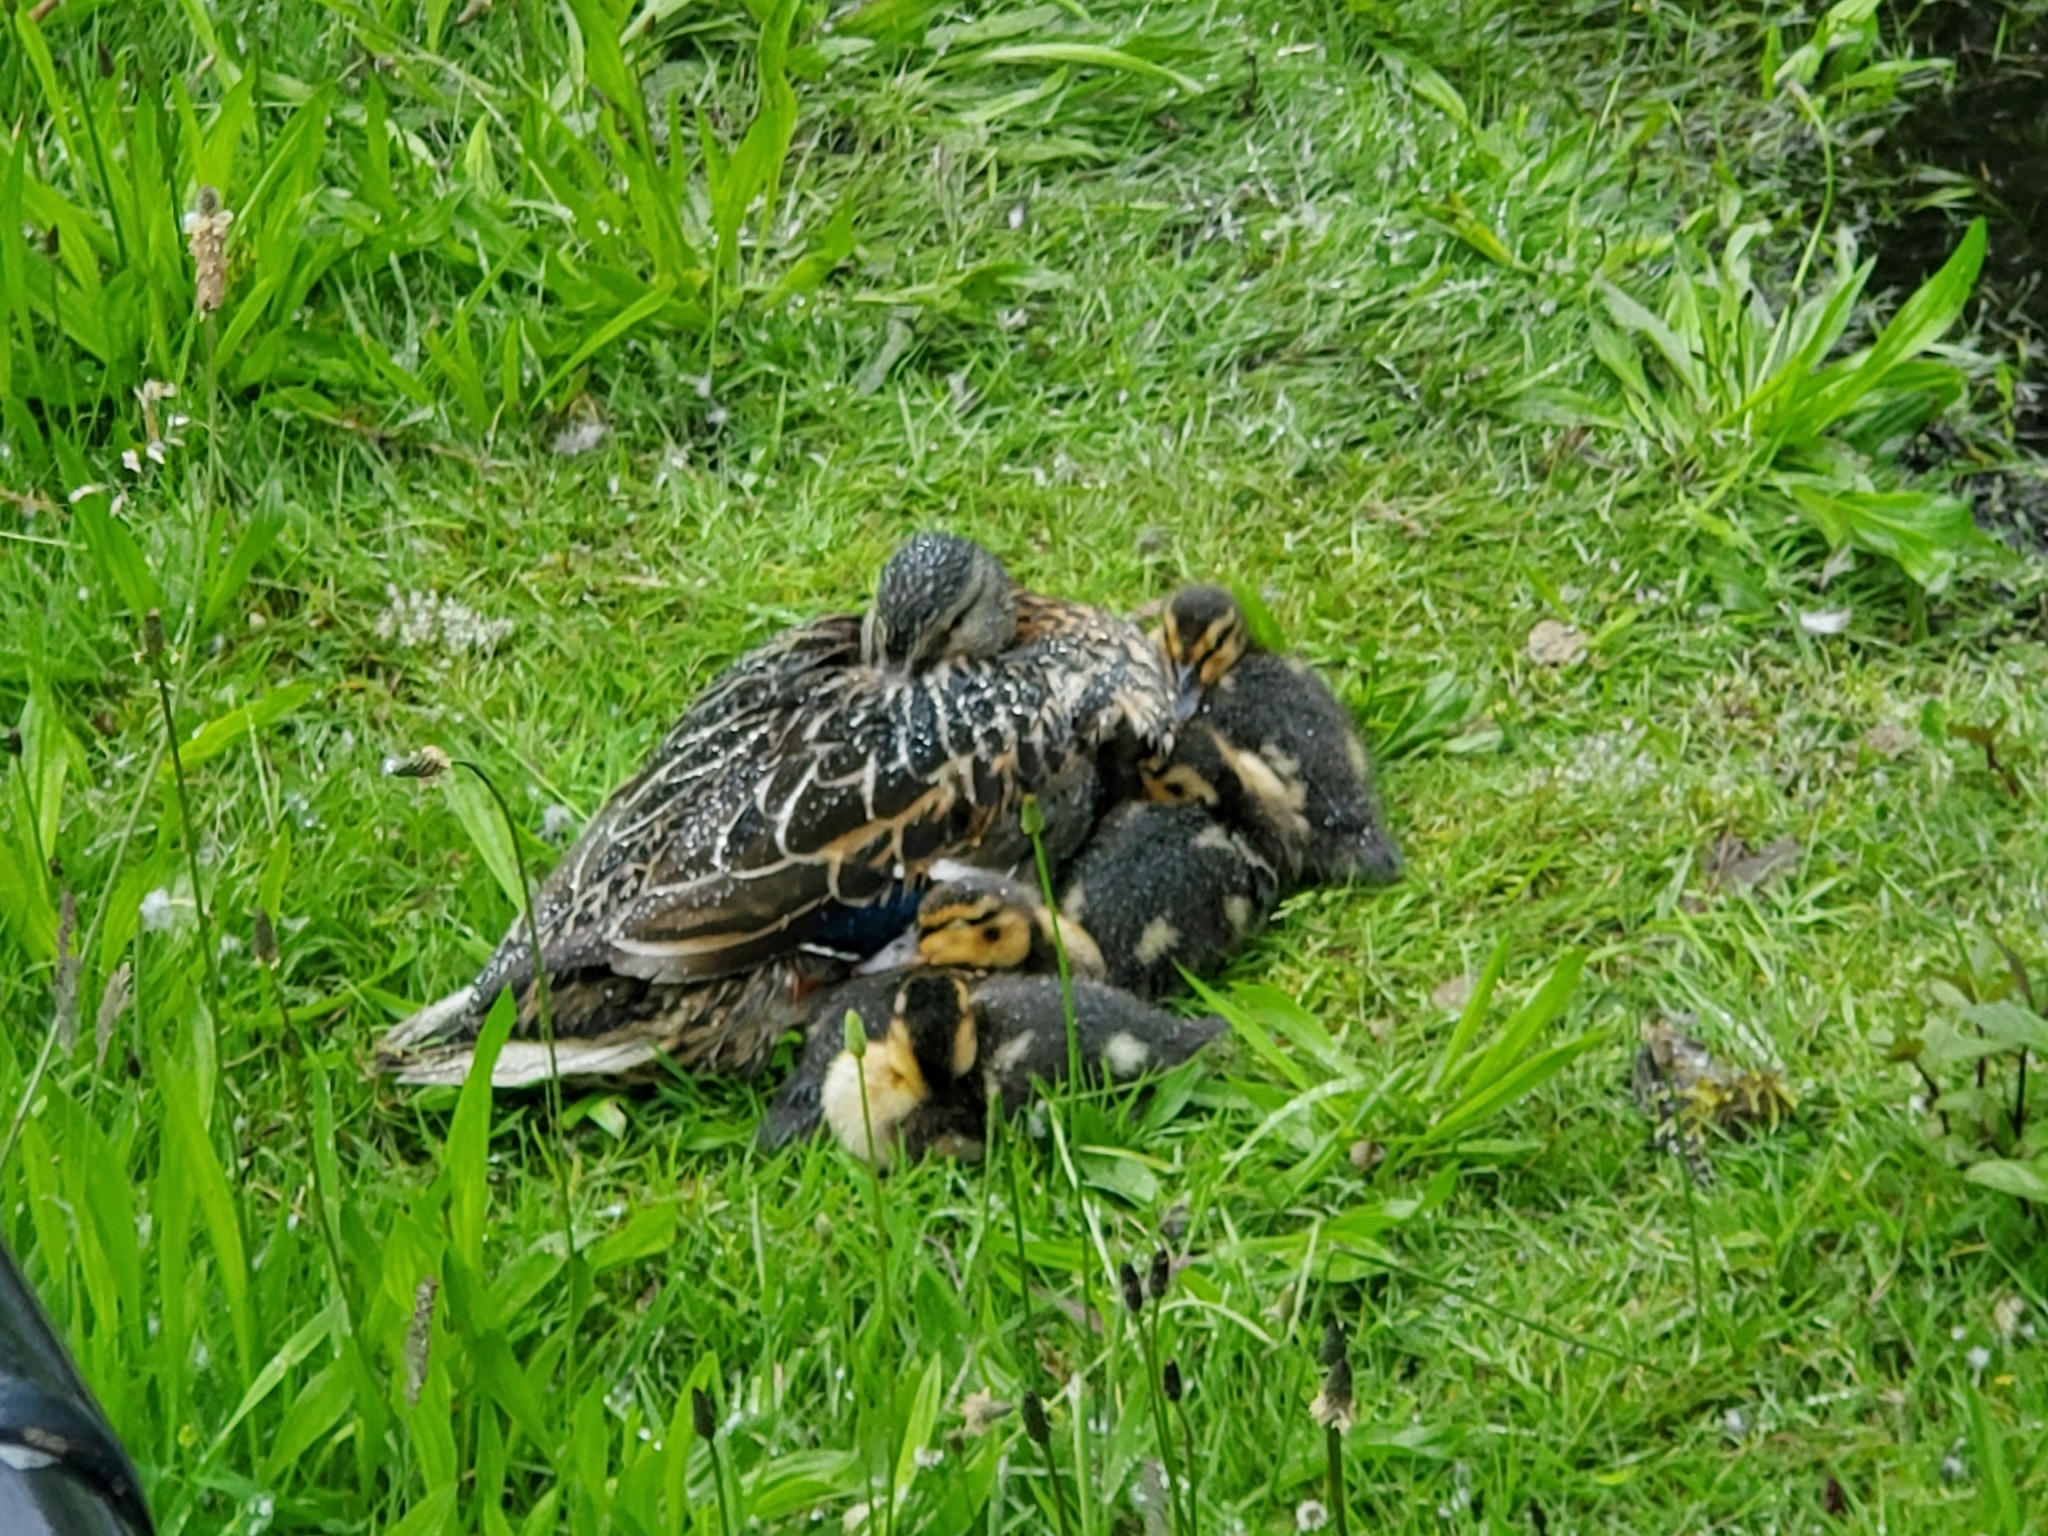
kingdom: Animalia
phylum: Chordata
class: Aves
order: Anseriformes
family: Anatidae
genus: Anas
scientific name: Anas platyrhynchos
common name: Mallard
